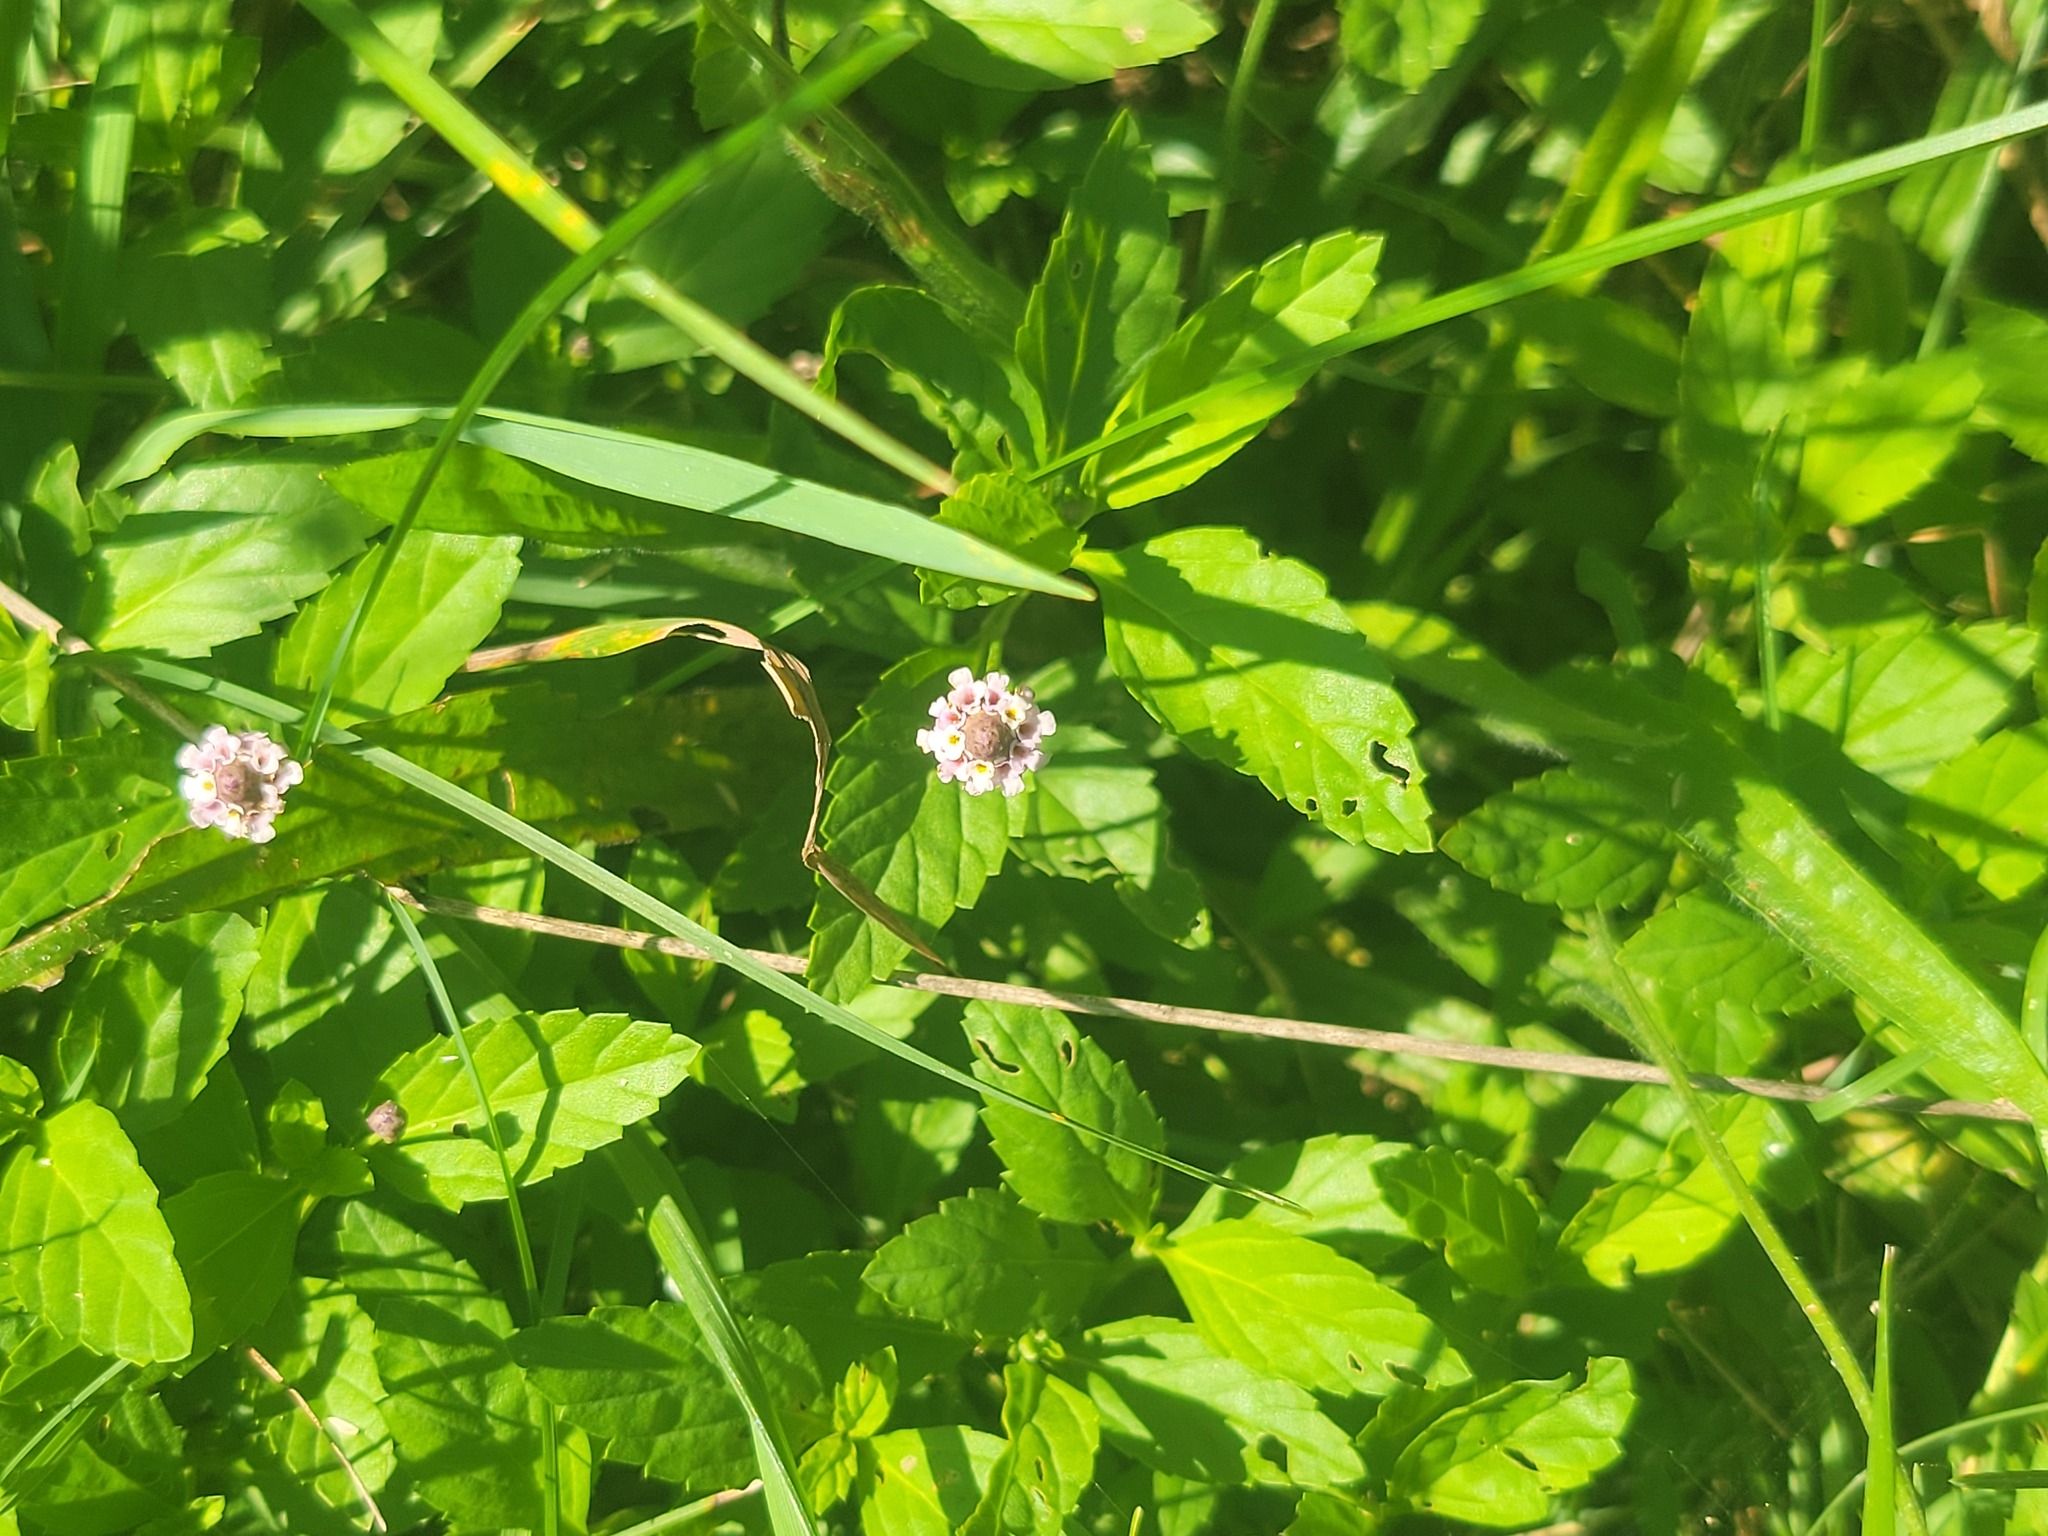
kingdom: Plantae
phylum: Tracheophyta
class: Magnoliopsida
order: Lamiales
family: Verbenaceae
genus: Phyla
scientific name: Phyla lanceolata
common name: Northern fogfruit
